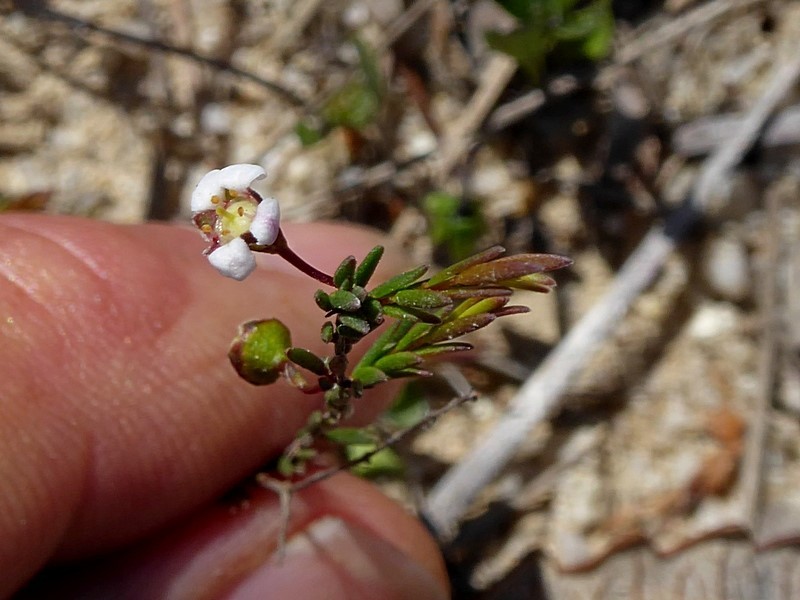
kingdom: Plantae
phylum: Tracheophyta
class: Magnoliopsida
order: Myrtales
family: Myrtaceae
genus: Euryomyrtus
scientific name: Euryomyrtus ramosissima
